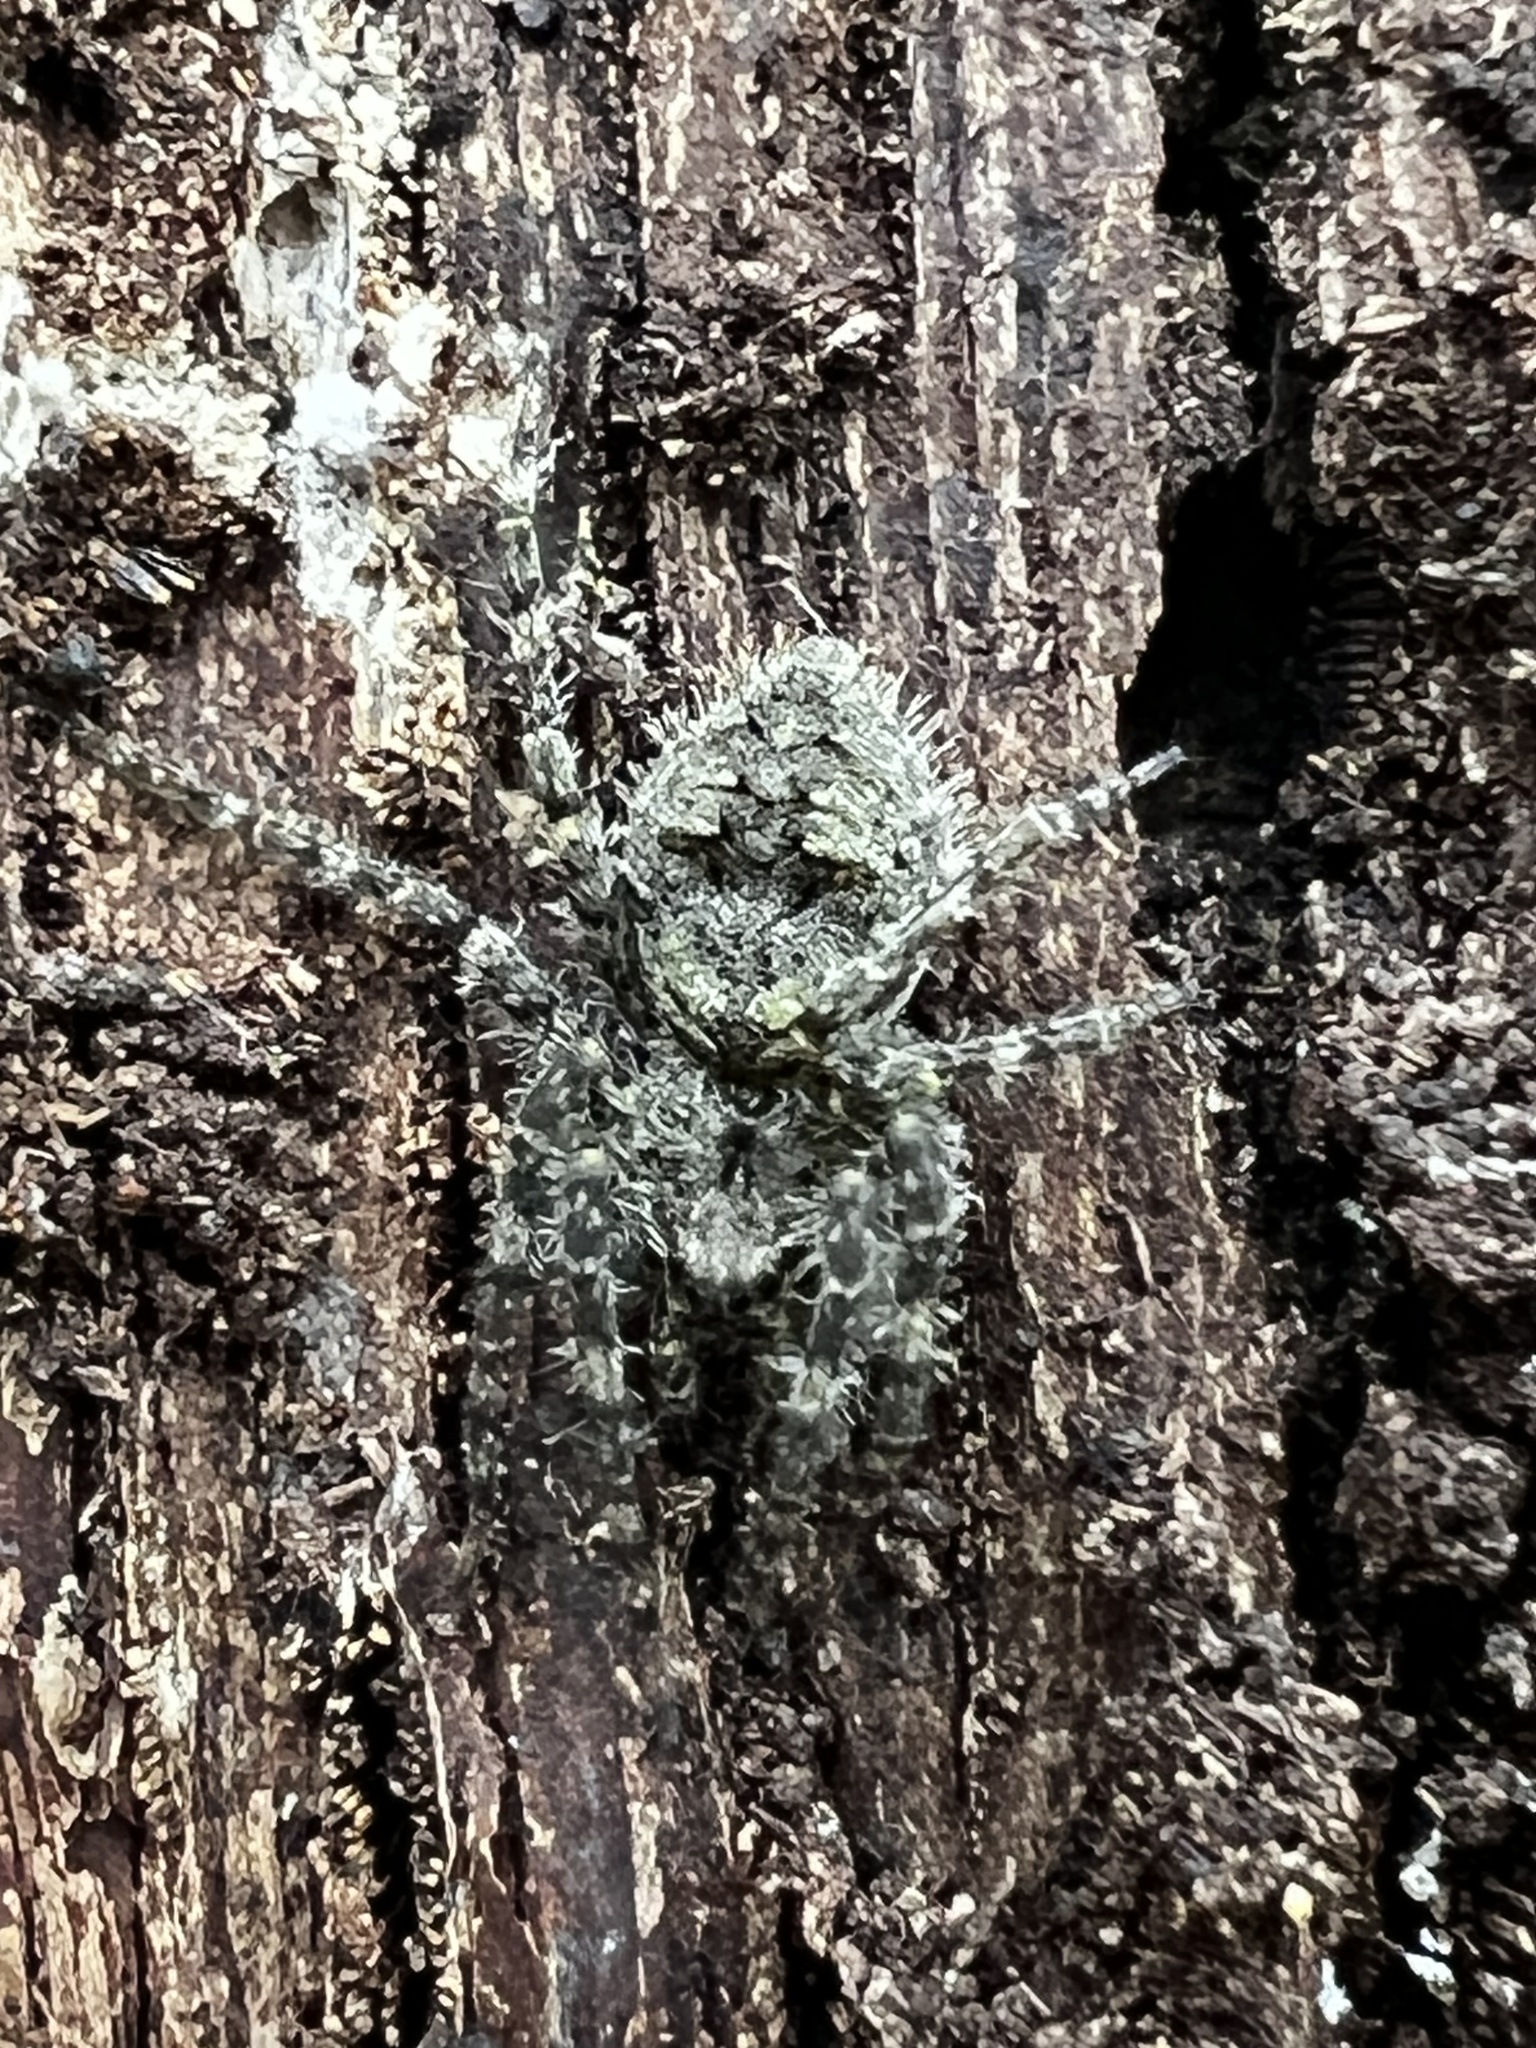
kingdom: Animalia
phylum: Arthropoda
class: Arachnida
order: Araneae
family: Pisauridae
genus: Dolomedes
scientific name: Dolomedes albineus
